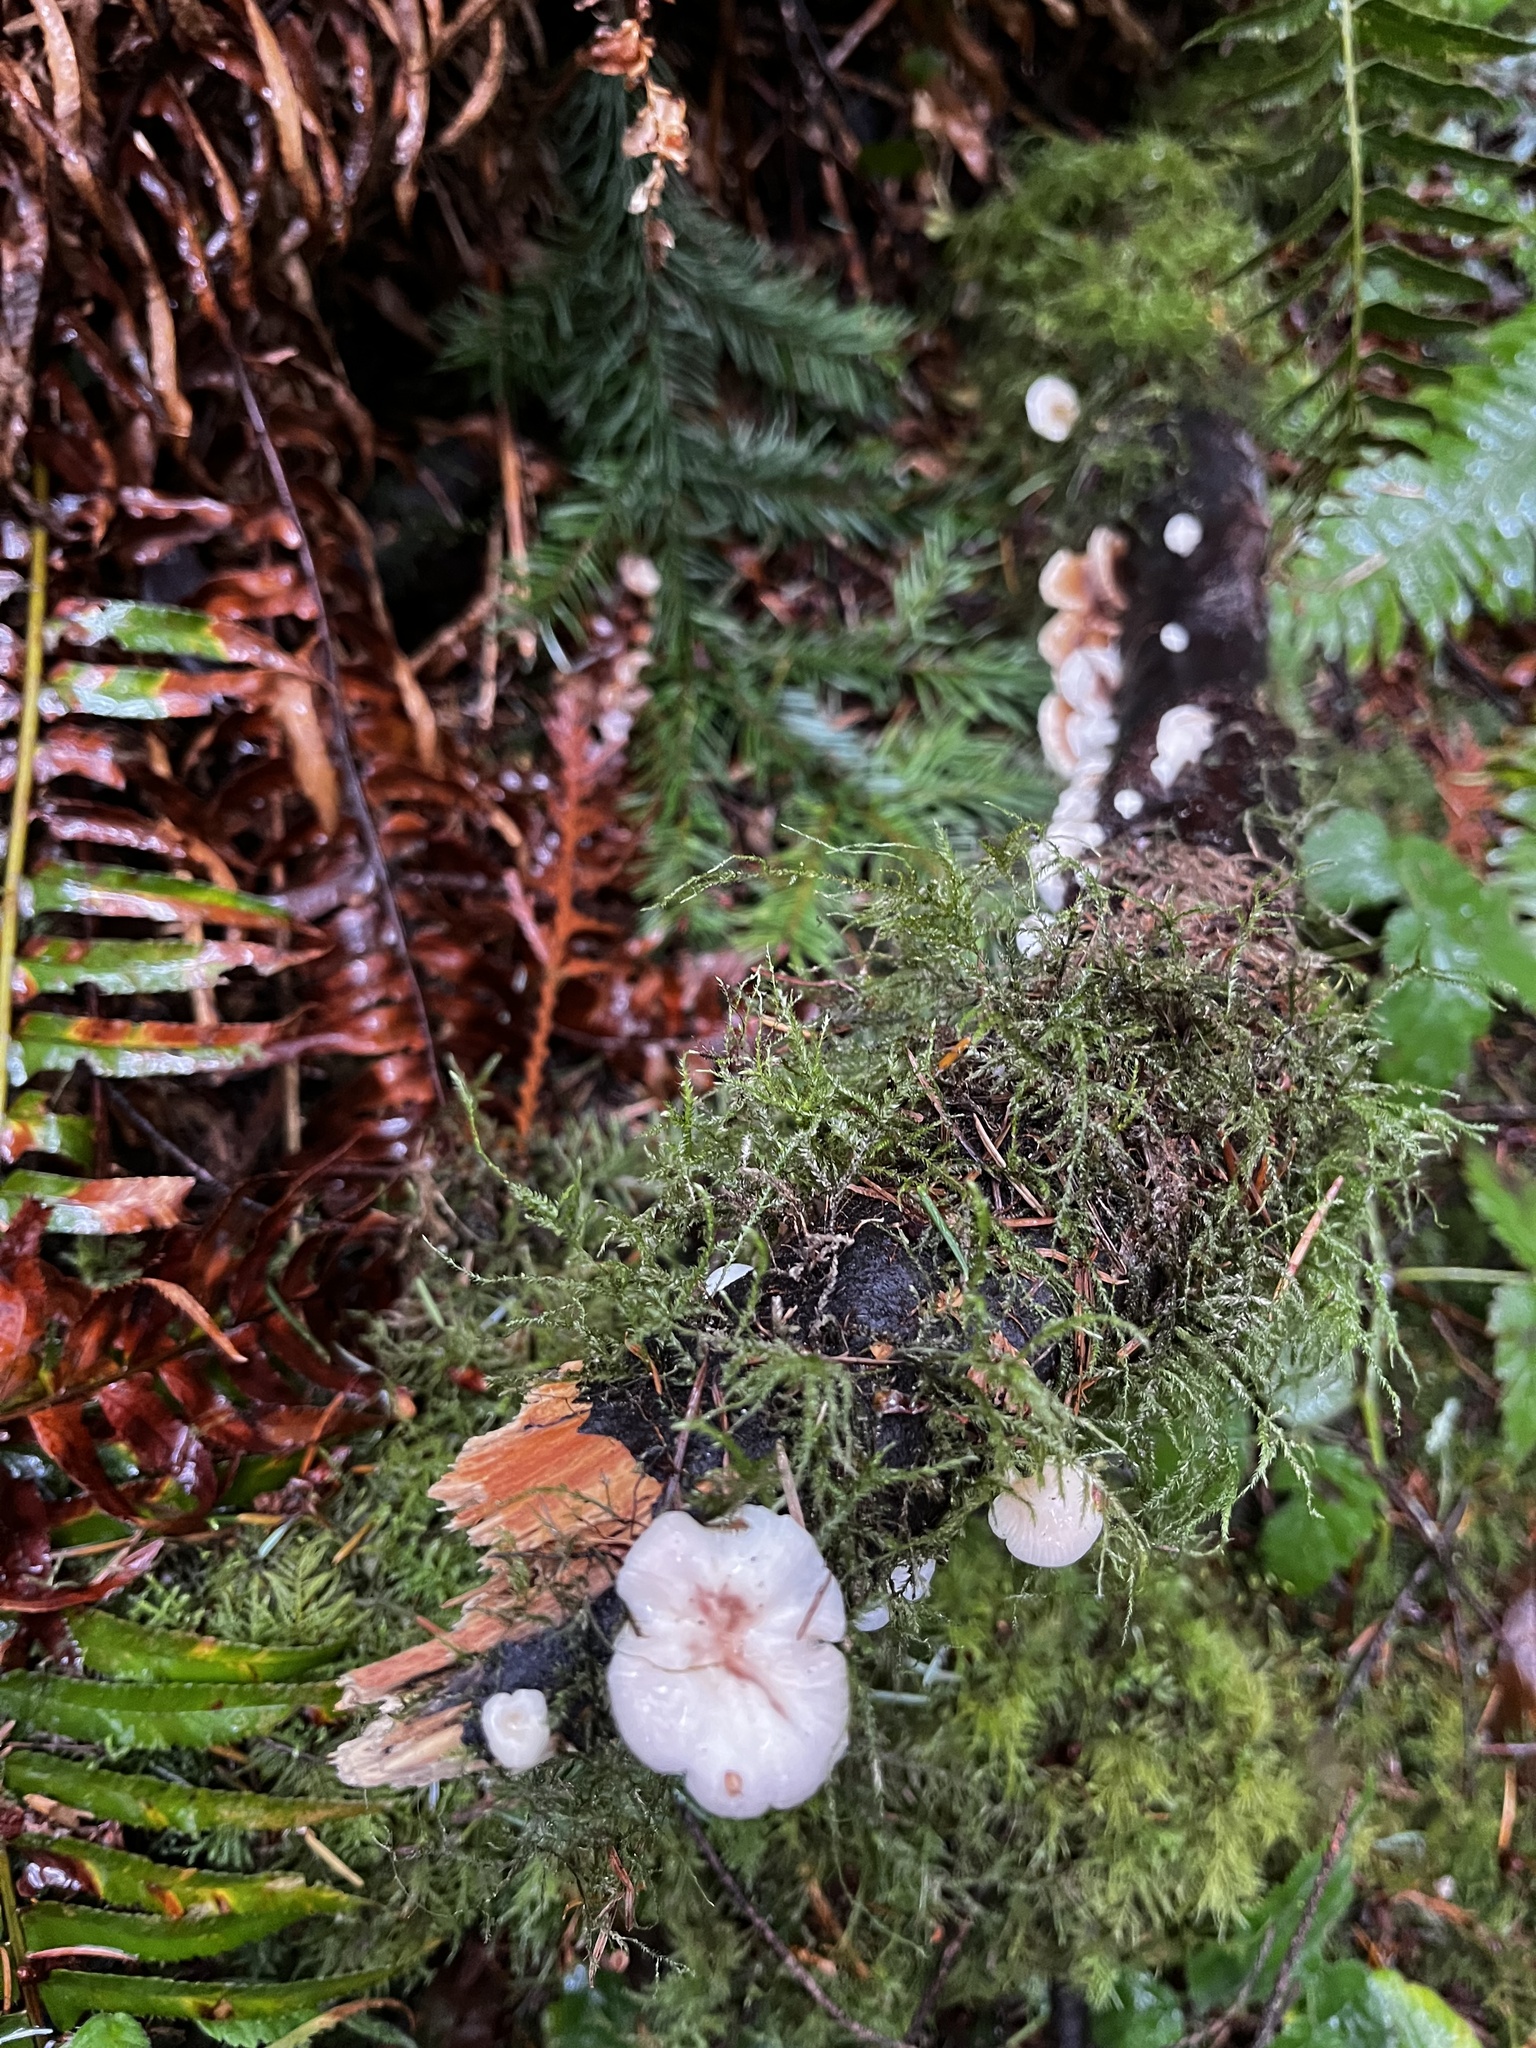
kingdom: Fungi
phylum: Basidiomycota
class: Agaricomycetes
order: Agaricales
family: Mycenaceae
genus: Panellus
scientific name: Panellus longinquus
